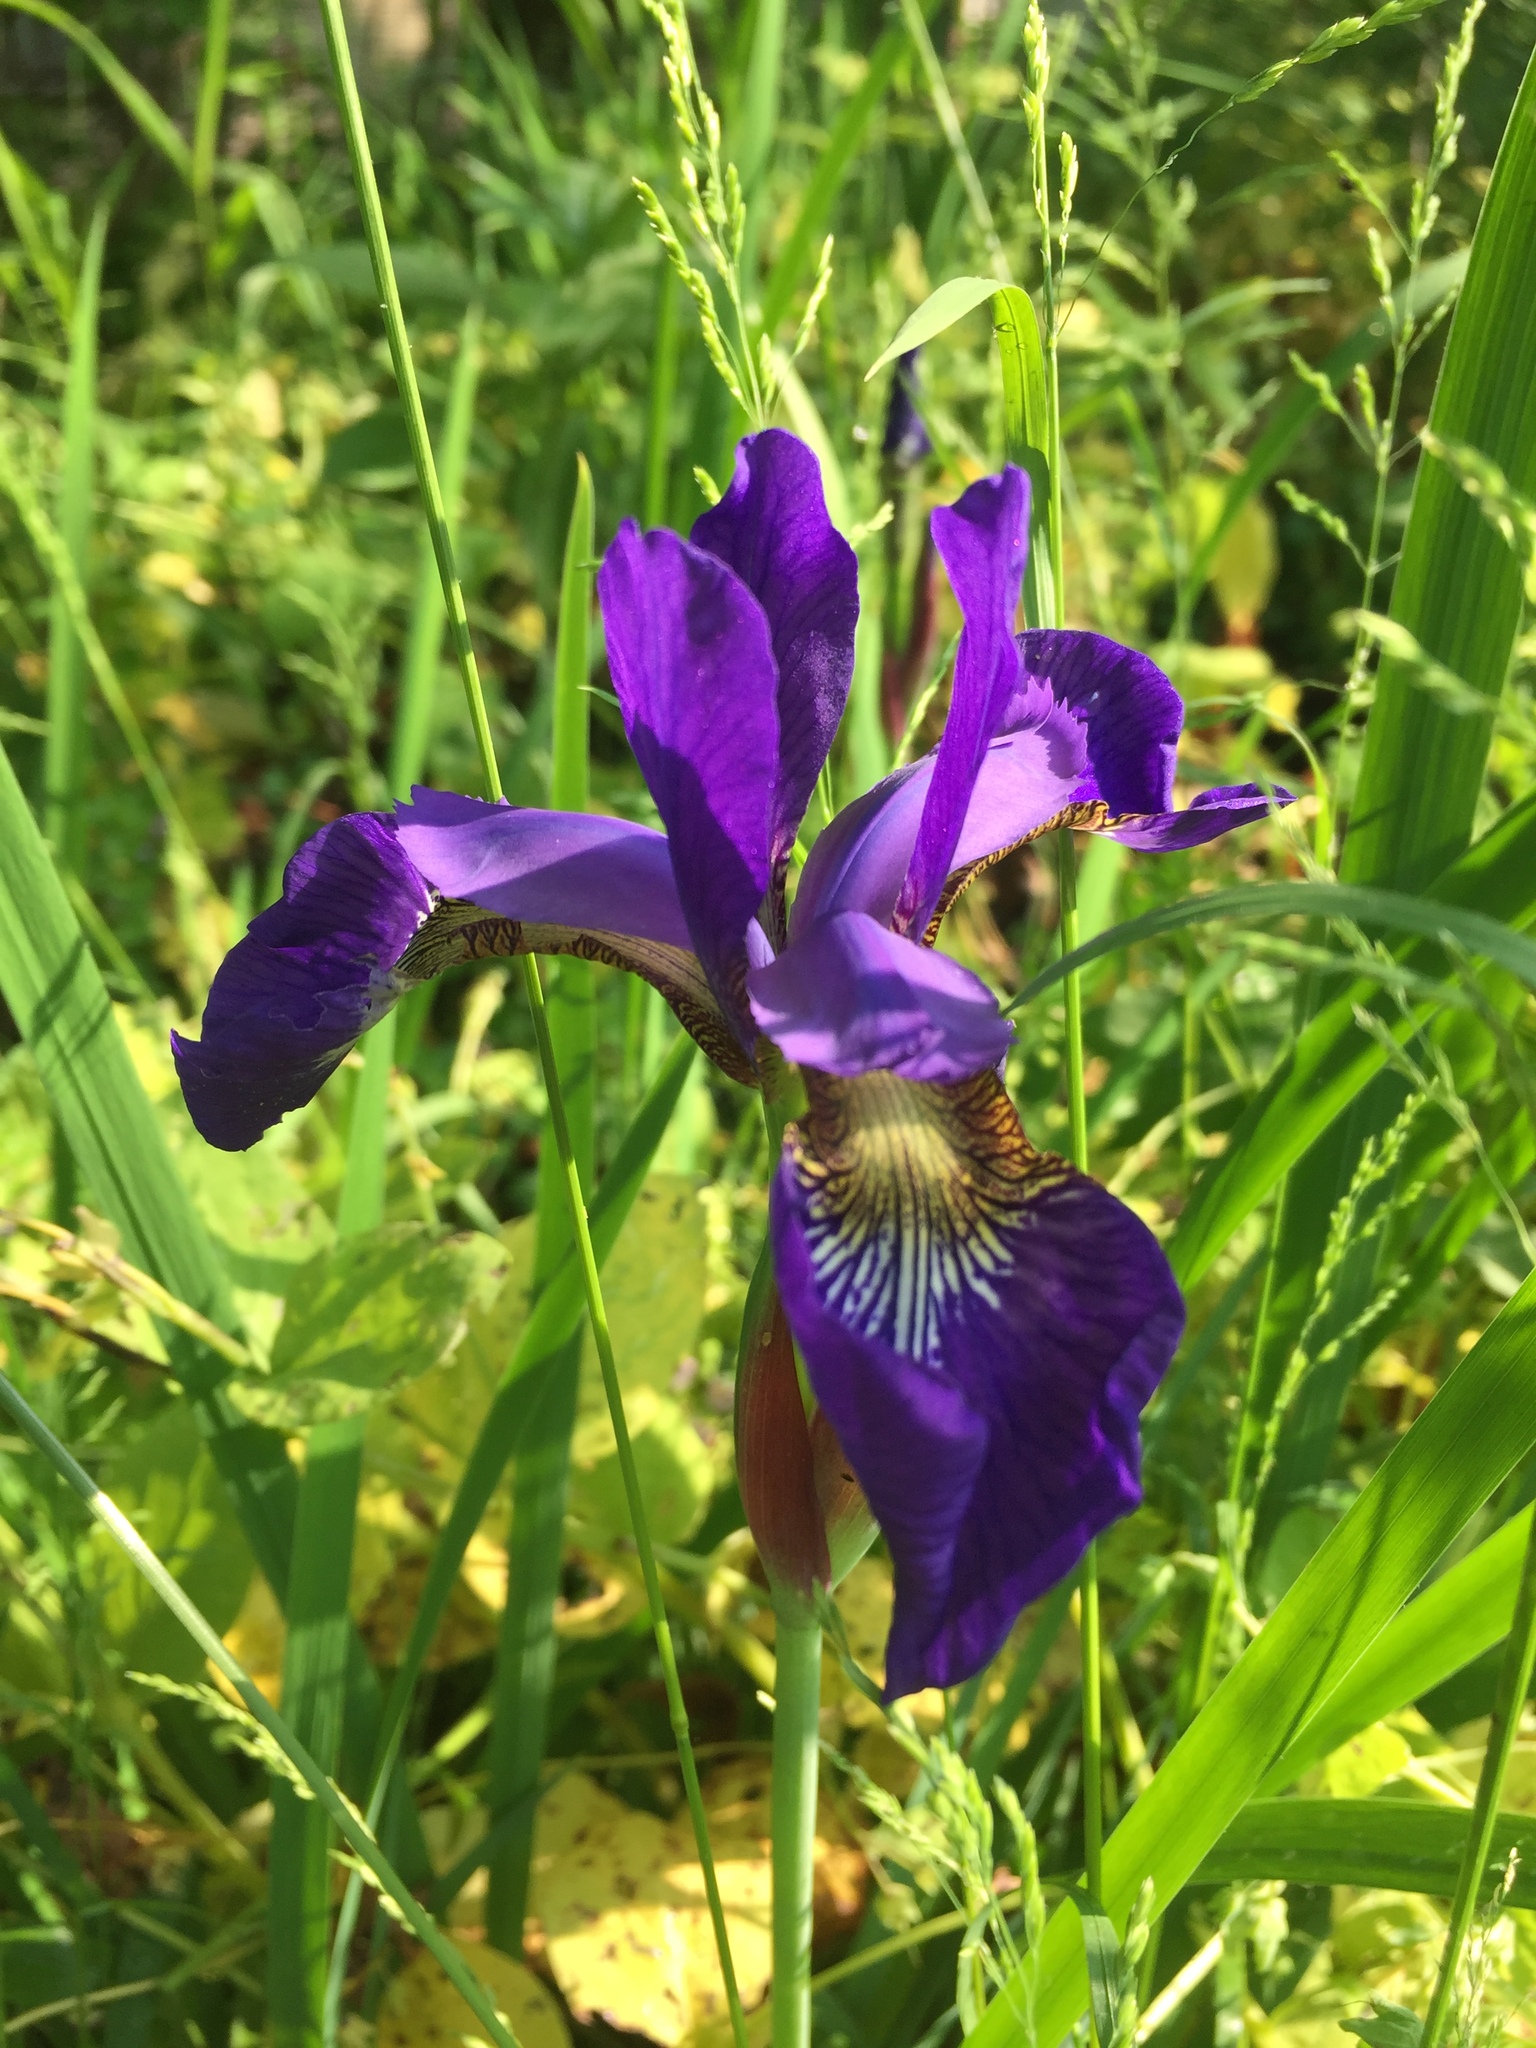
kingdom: Plantae
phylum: Tracheophyta
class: Liliopsida
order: Asparagales
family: Iridaceae
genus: Iris
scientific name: Iris sanguinea
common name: Blood iris
